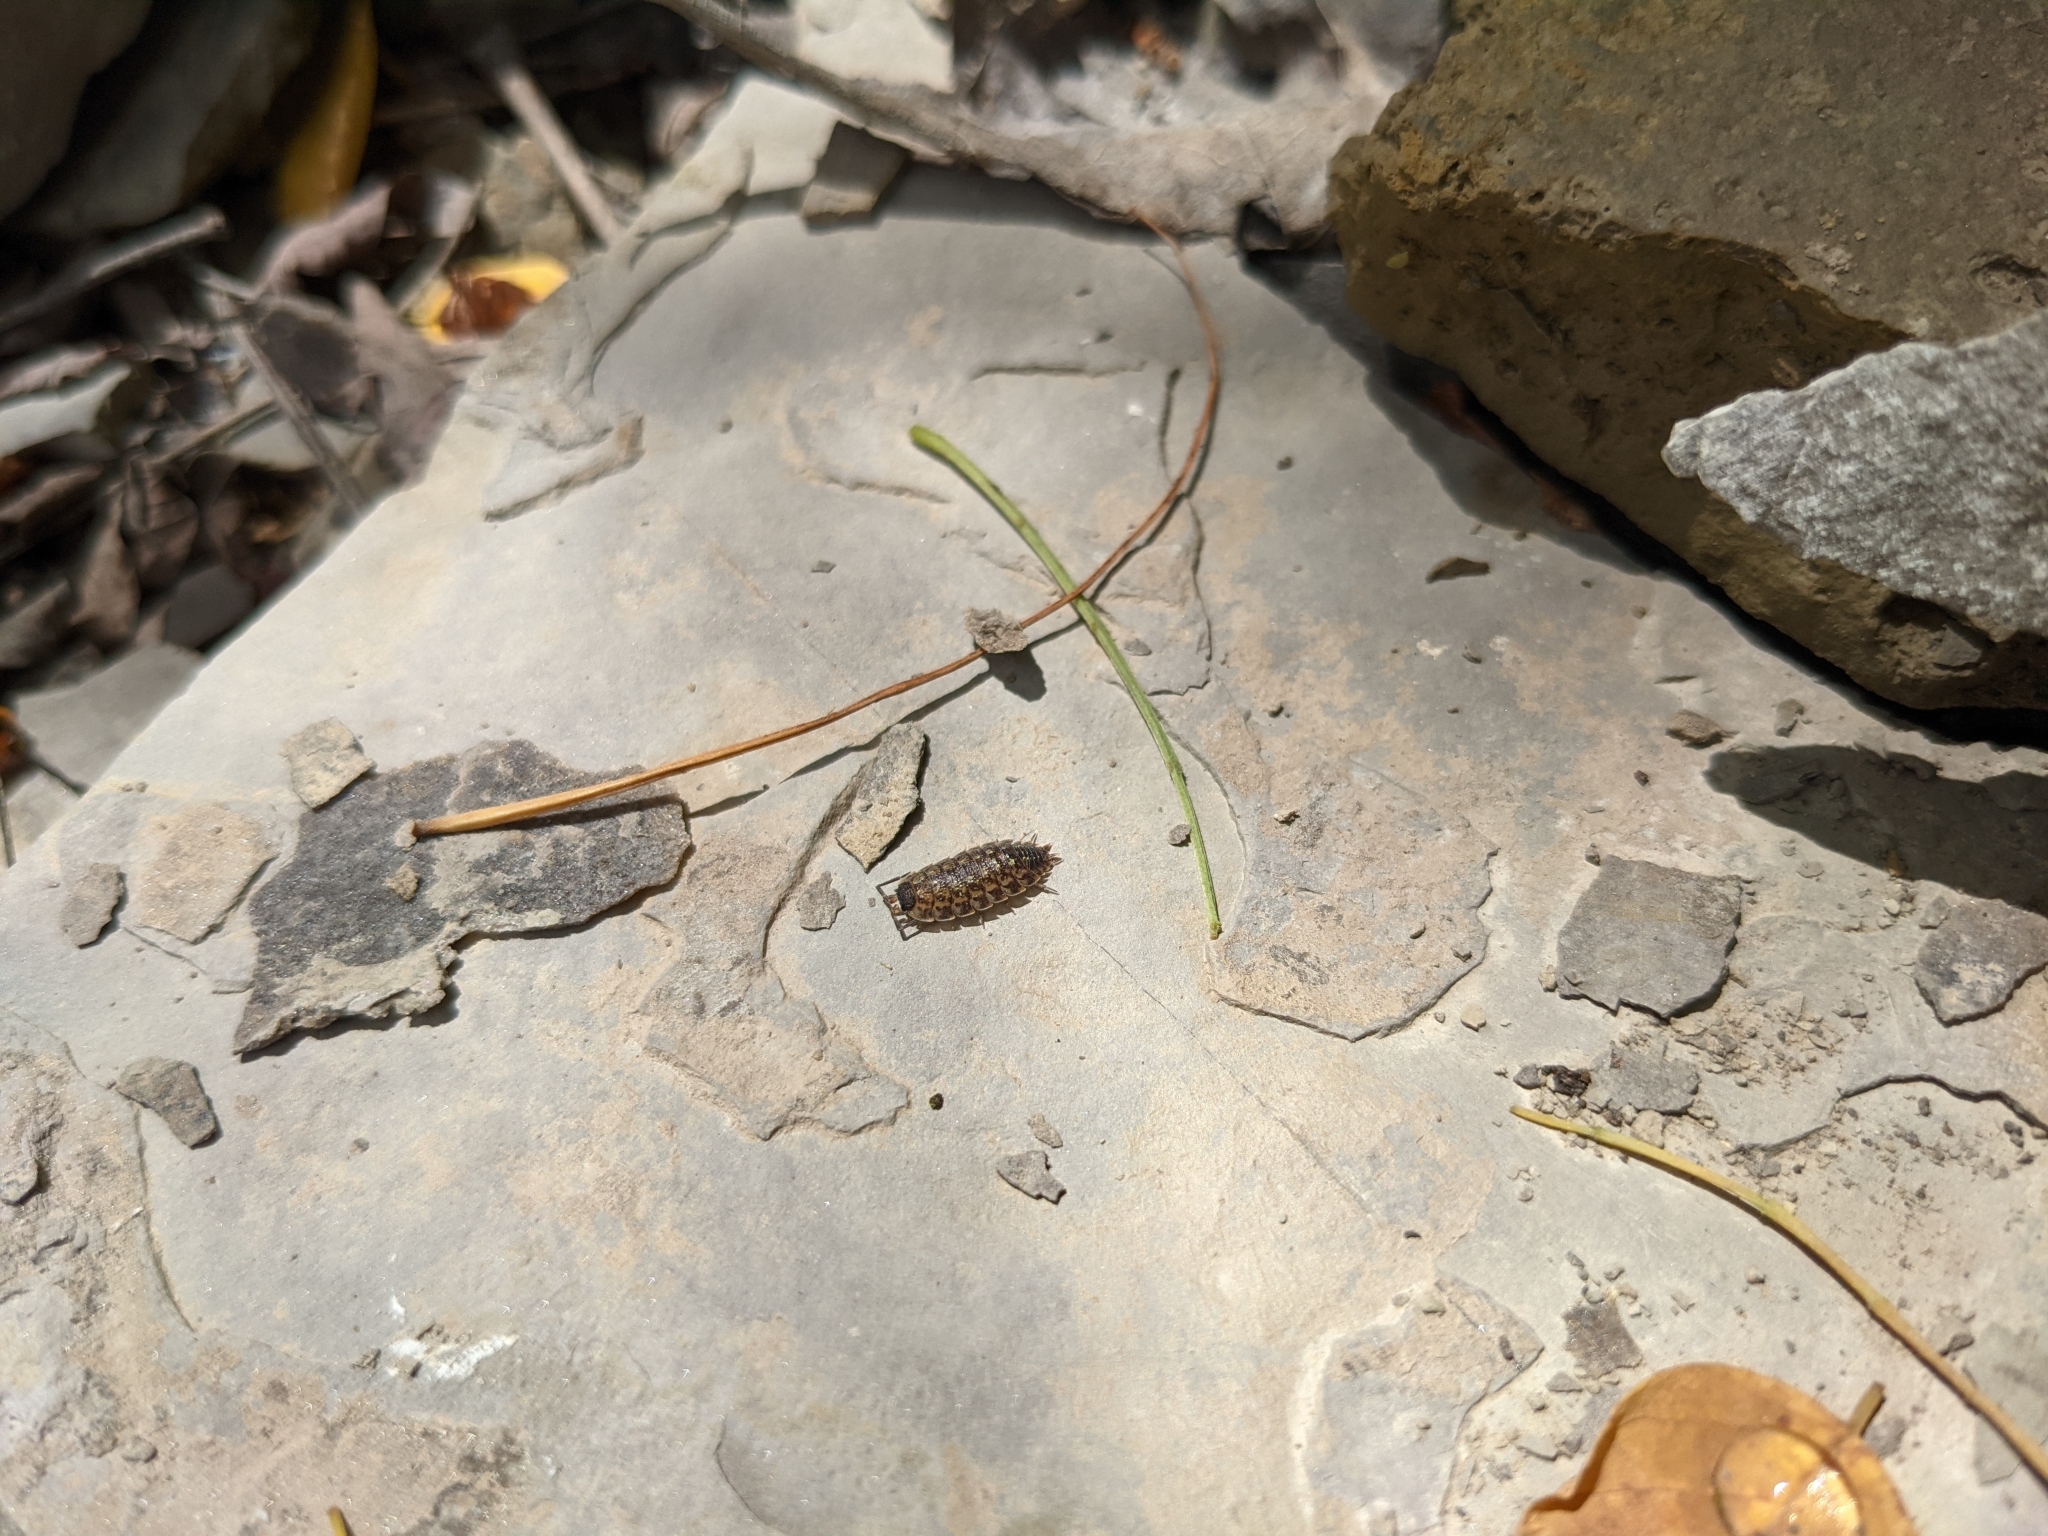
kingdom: Animalia
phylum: Arthropoda
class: Malacostraca
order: Isopoda
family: Porcellionidae
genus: Porcellio
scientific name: Porcellio spinicornis
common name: Painted woodlouse
